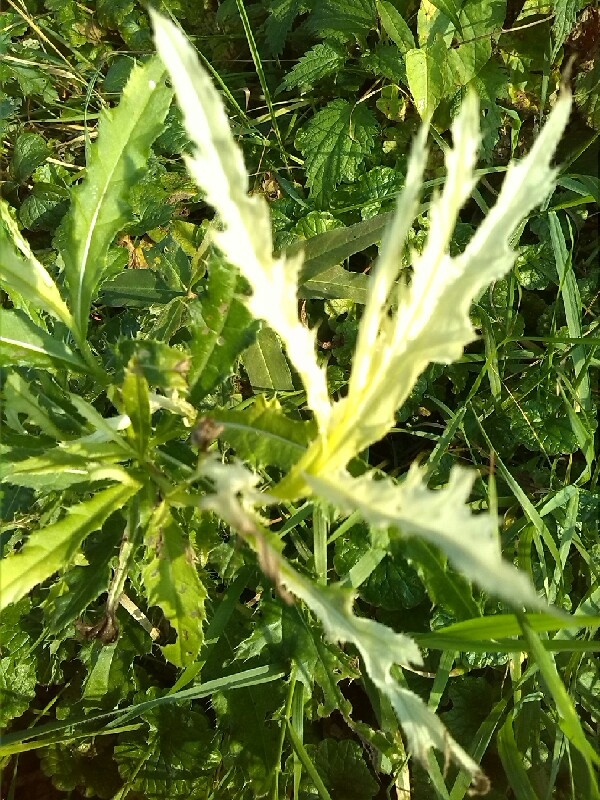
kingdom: Bacteria
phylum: Proteobacteria
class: Gammaproteobacteria
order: Pseudomonadales
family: Pseudomonadaceae
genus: Pseudomonas
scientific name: Pseudomonas syringae
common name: Bacterial speck
